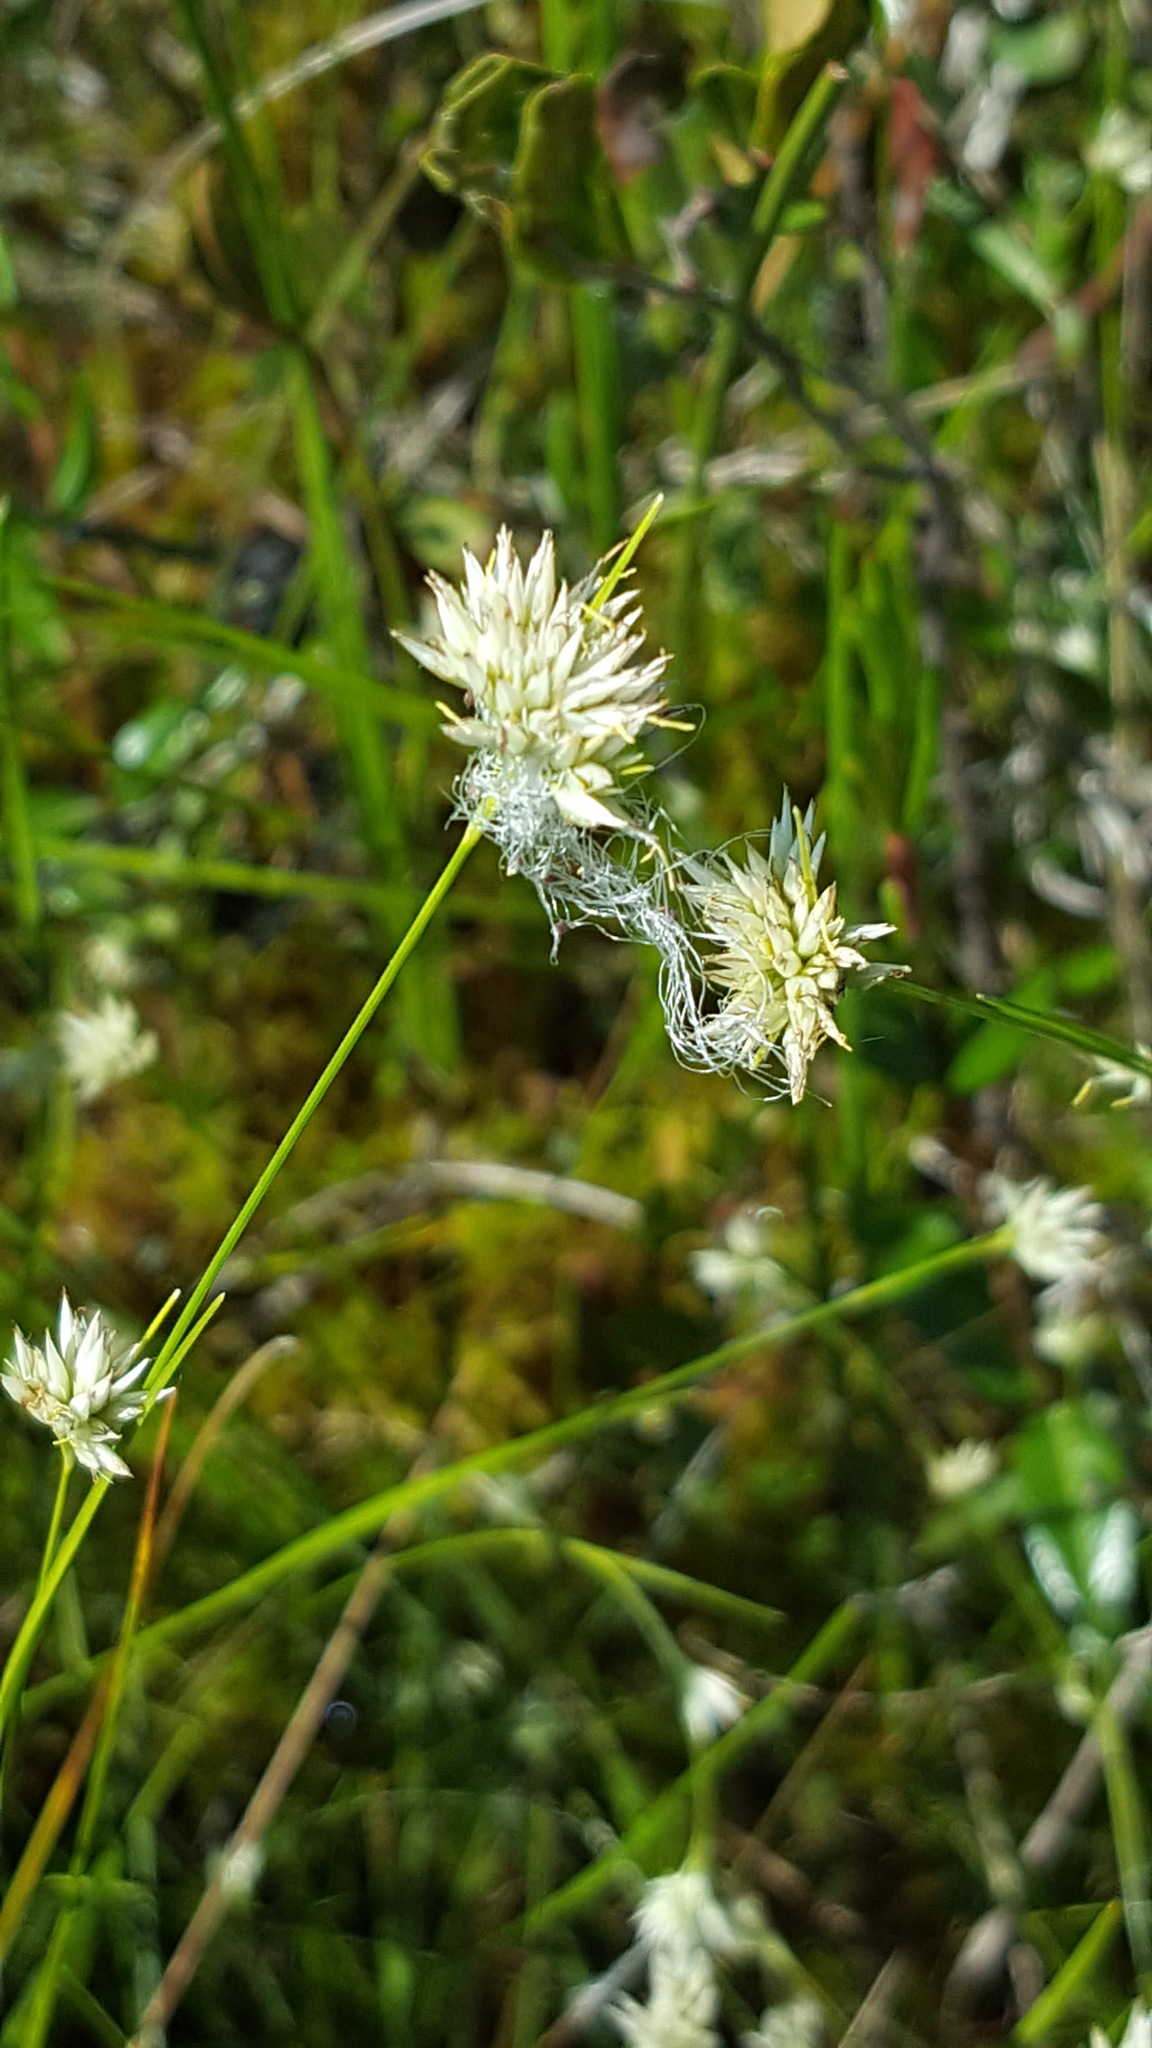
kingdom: Plantae
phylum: Tracheophyta
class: Liliopsida
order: Poales
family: Cyperaceae
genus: Rhynchospora
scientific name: Rhynchospora alba
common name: White beak-sedge
